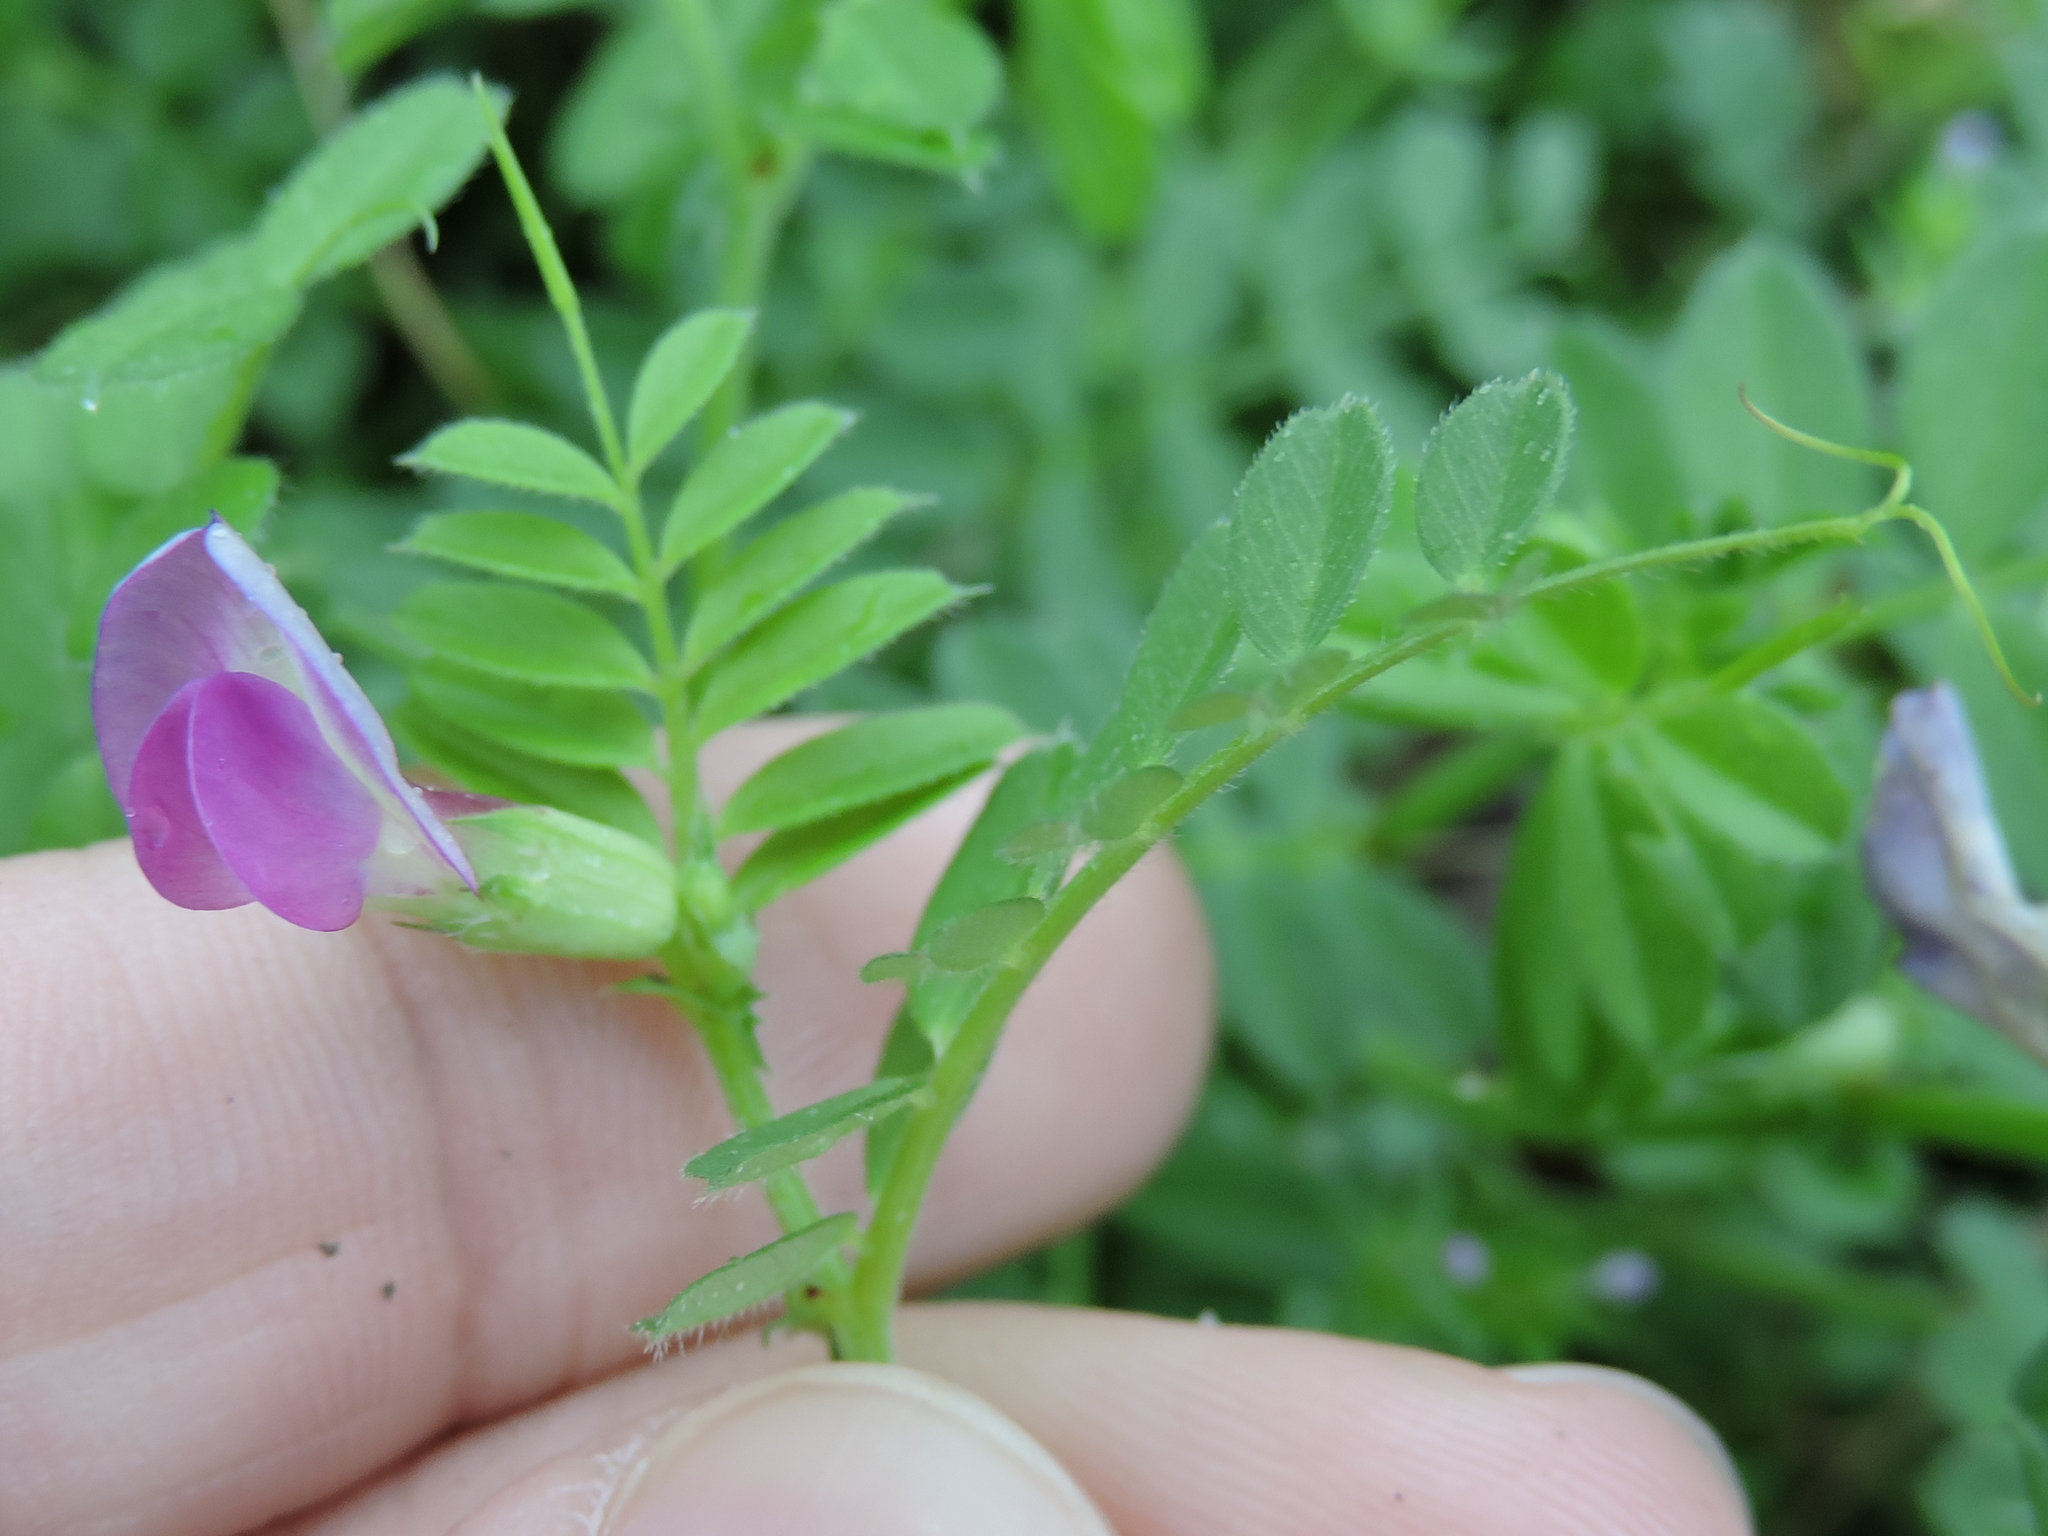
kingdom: Plantae
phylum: Tracheophyta
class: Magnoliopsida
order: Fabales
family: Fabaceae
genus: Vicia
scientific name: Vicia sativa
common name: Garden vetch
